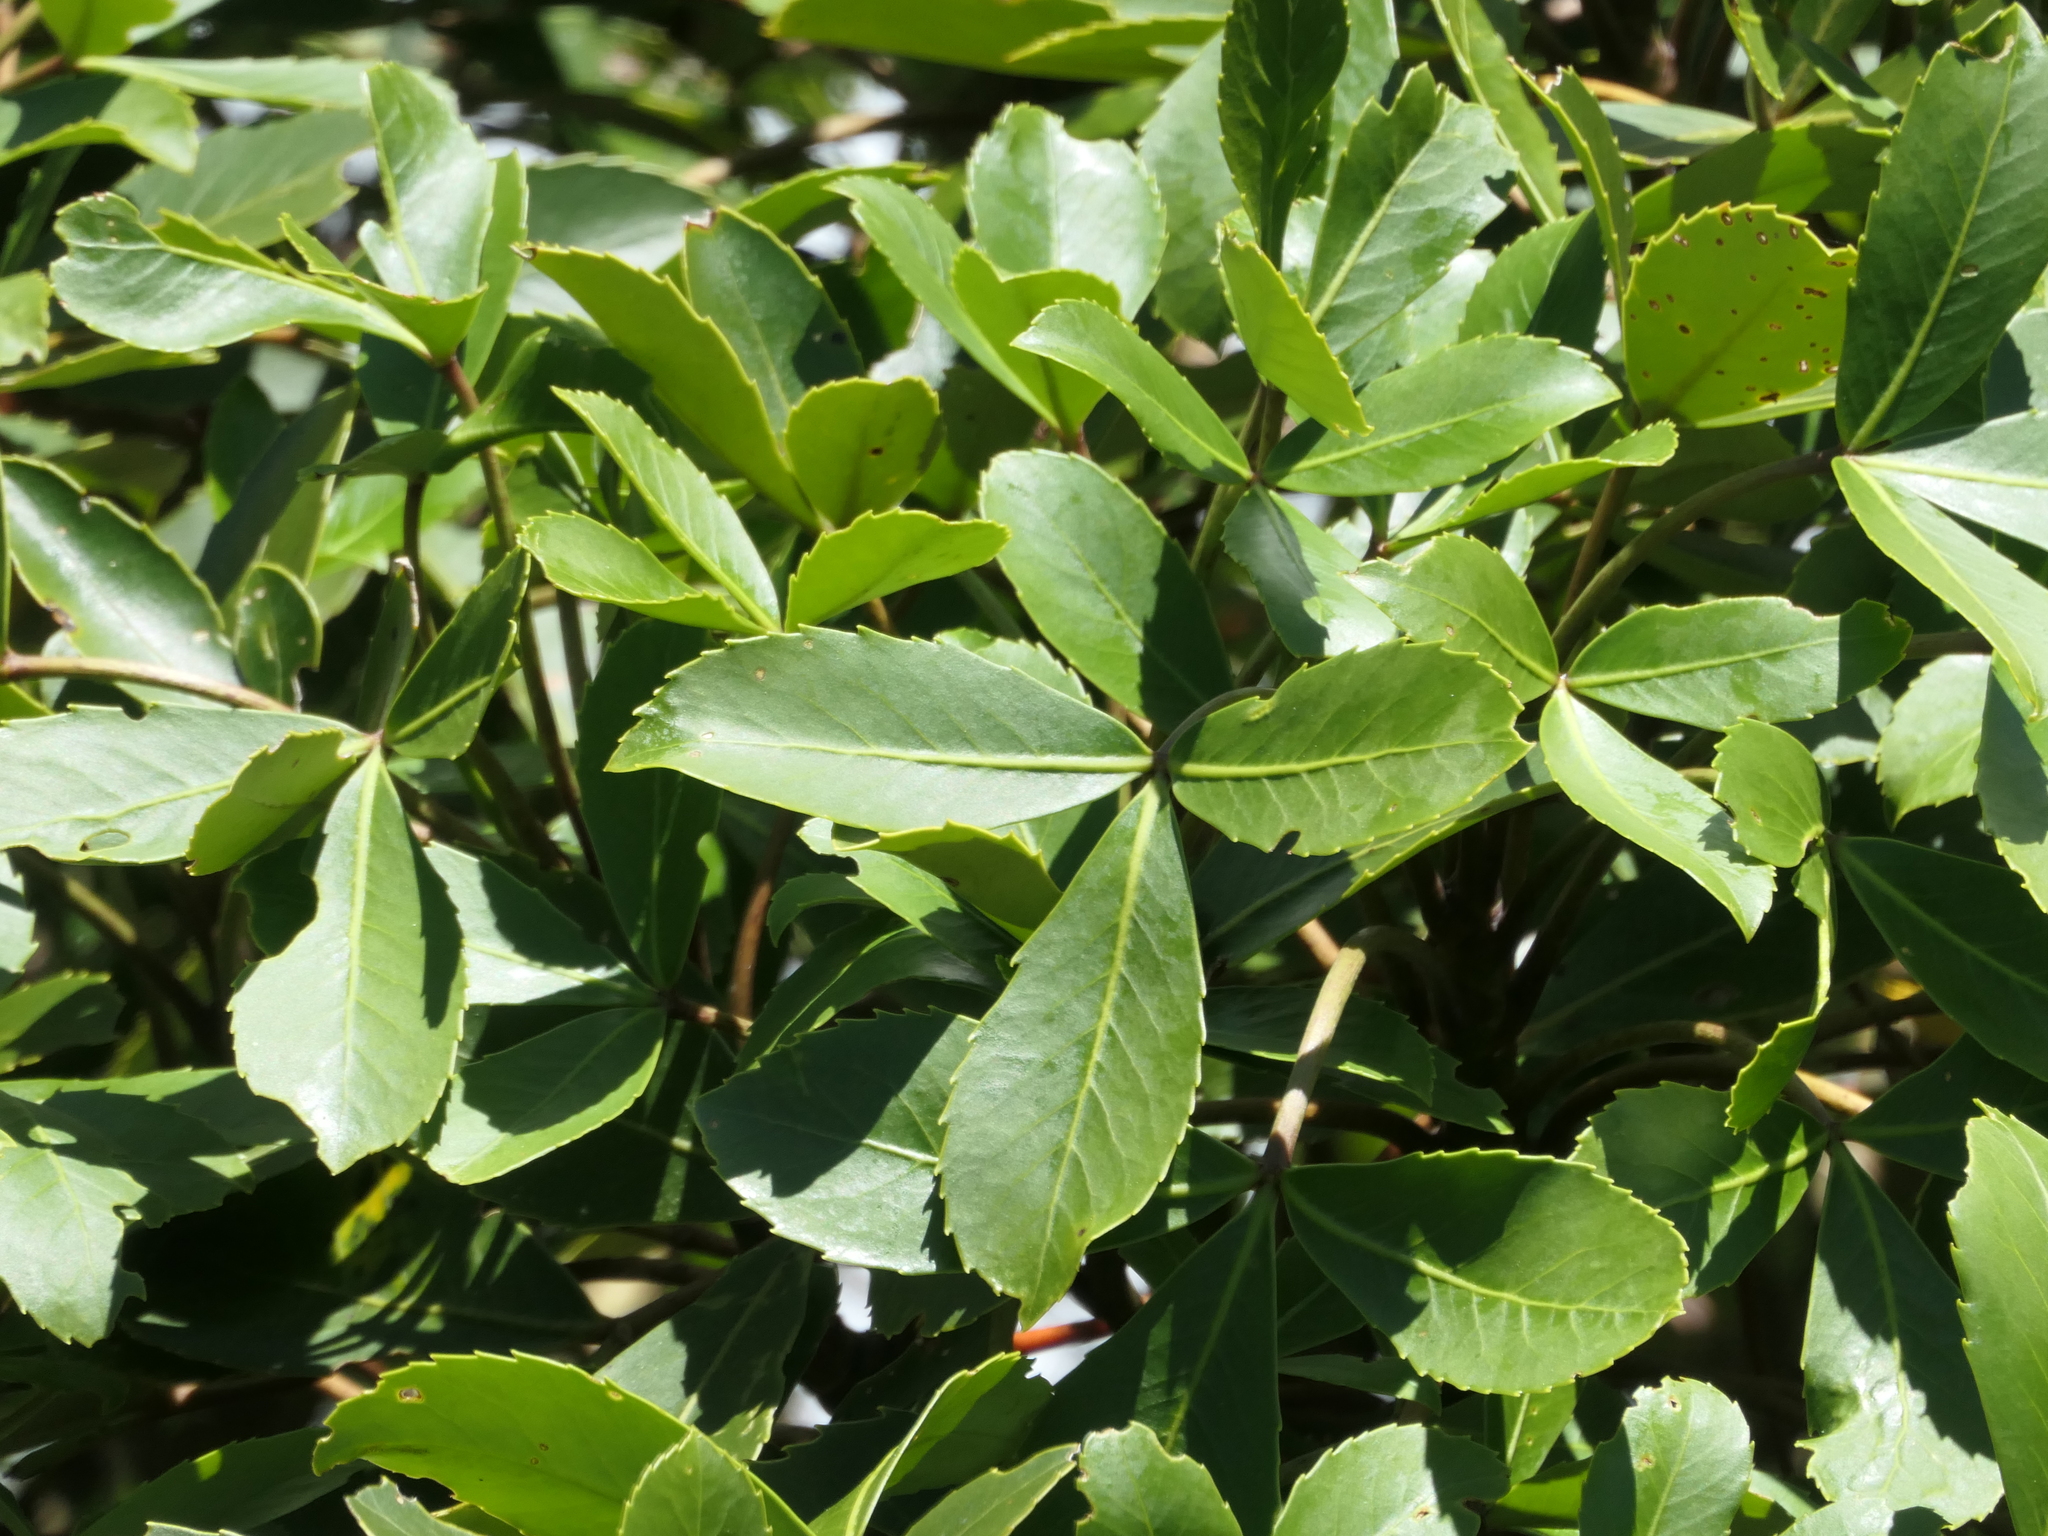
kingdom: Plantae
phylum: Tracheophyta
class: Magnoliopsida
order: Apiales
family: Araliaceae
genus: Neopanax
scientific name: Neopanax colensoi
